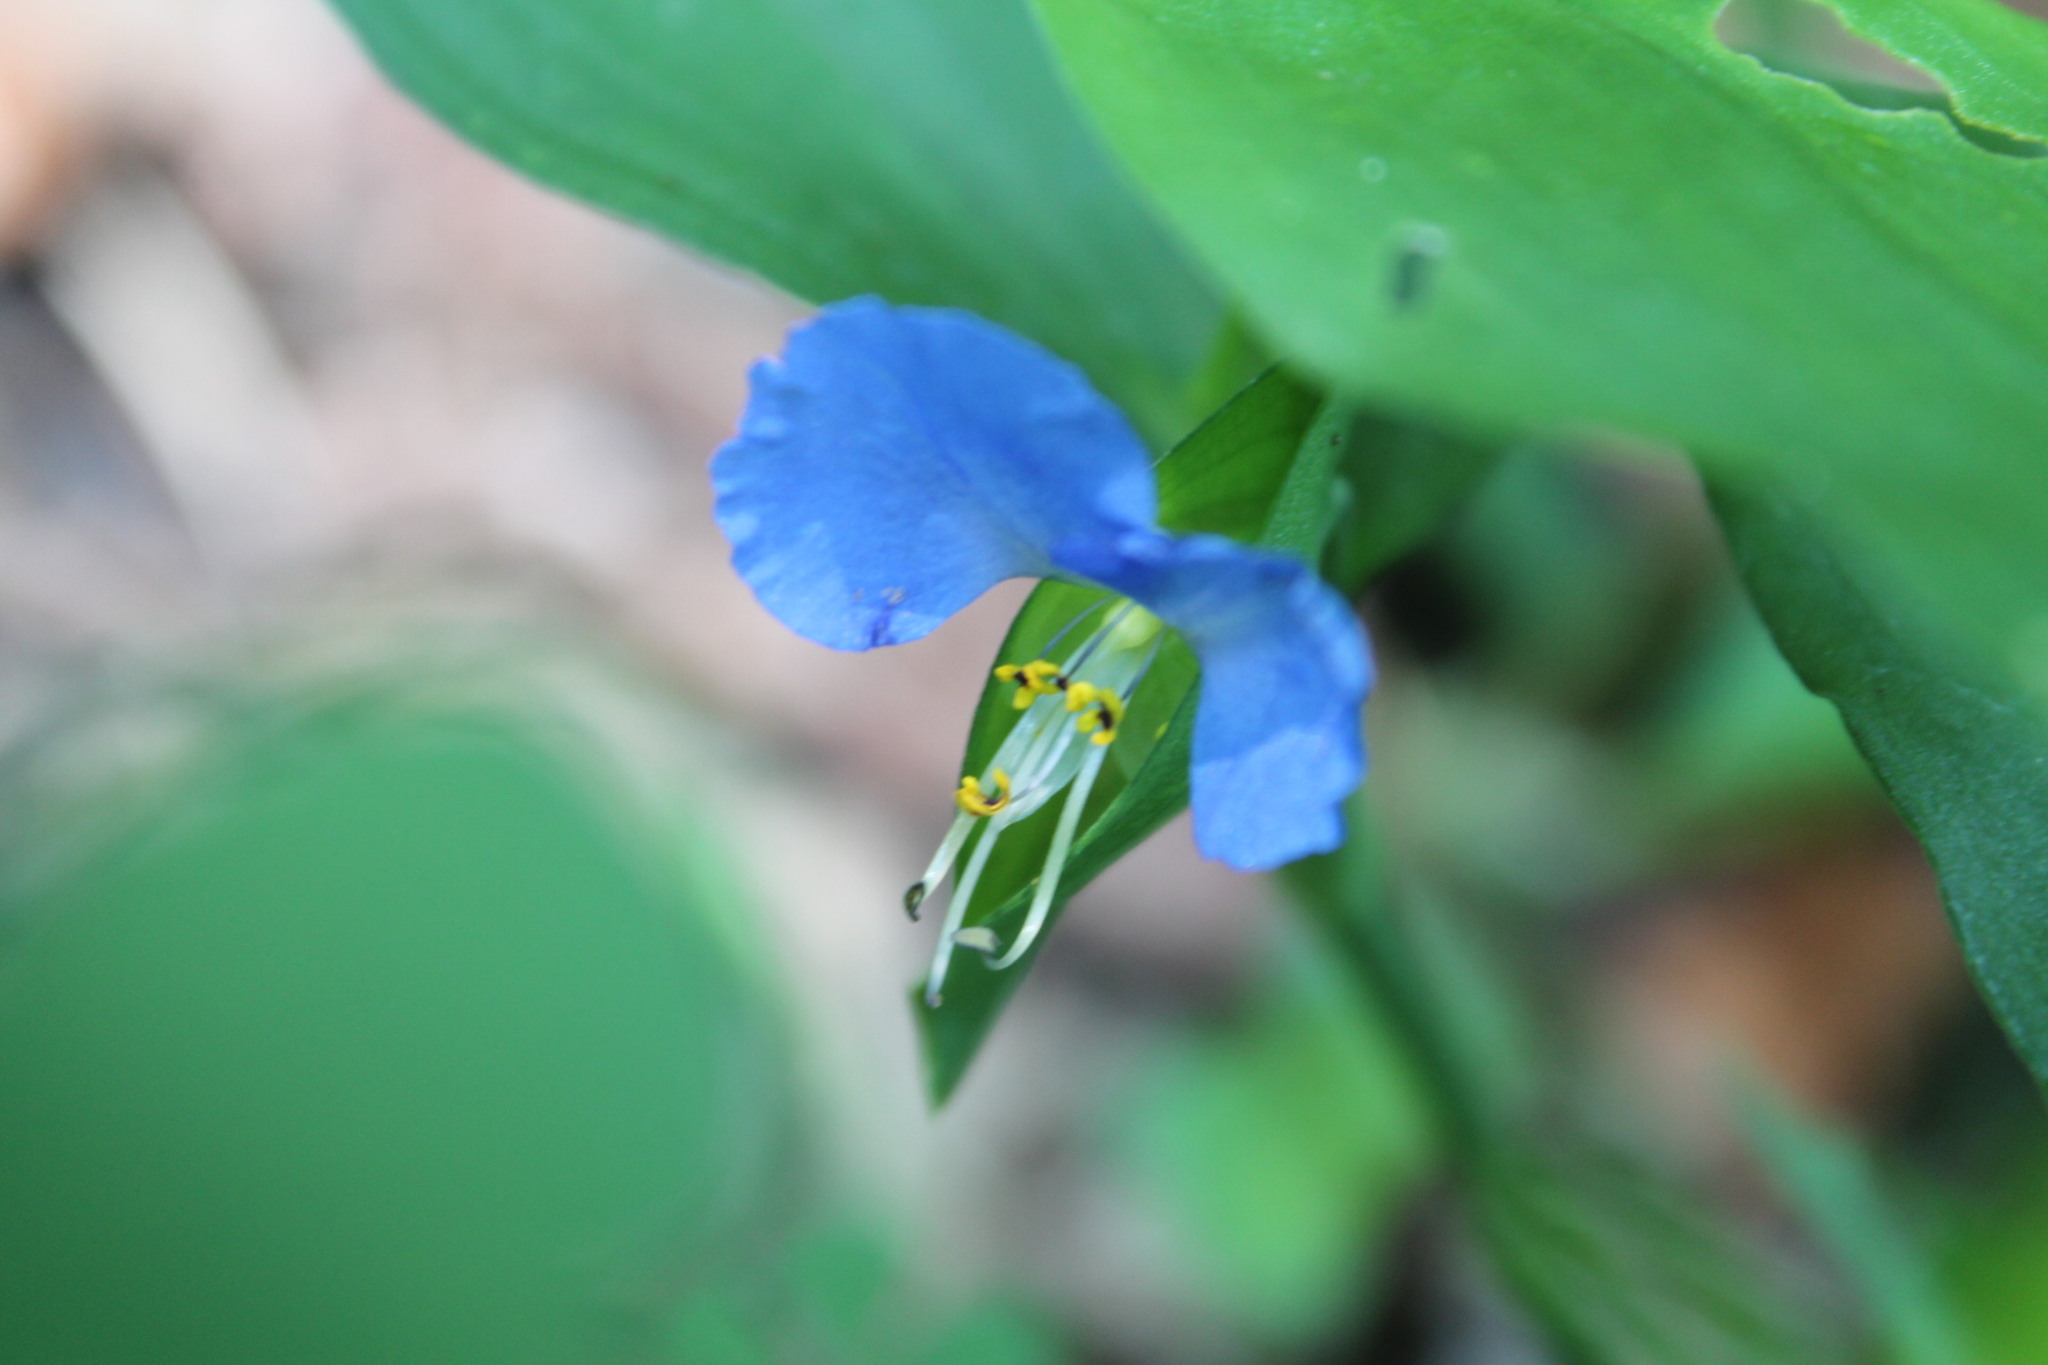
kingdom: Plantae
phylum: Tracheophyta
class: Liliopsida
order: Commelinales
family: Commelinaceae
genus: Commelina
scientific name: Commelina communis
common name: Asiatic dayflower
